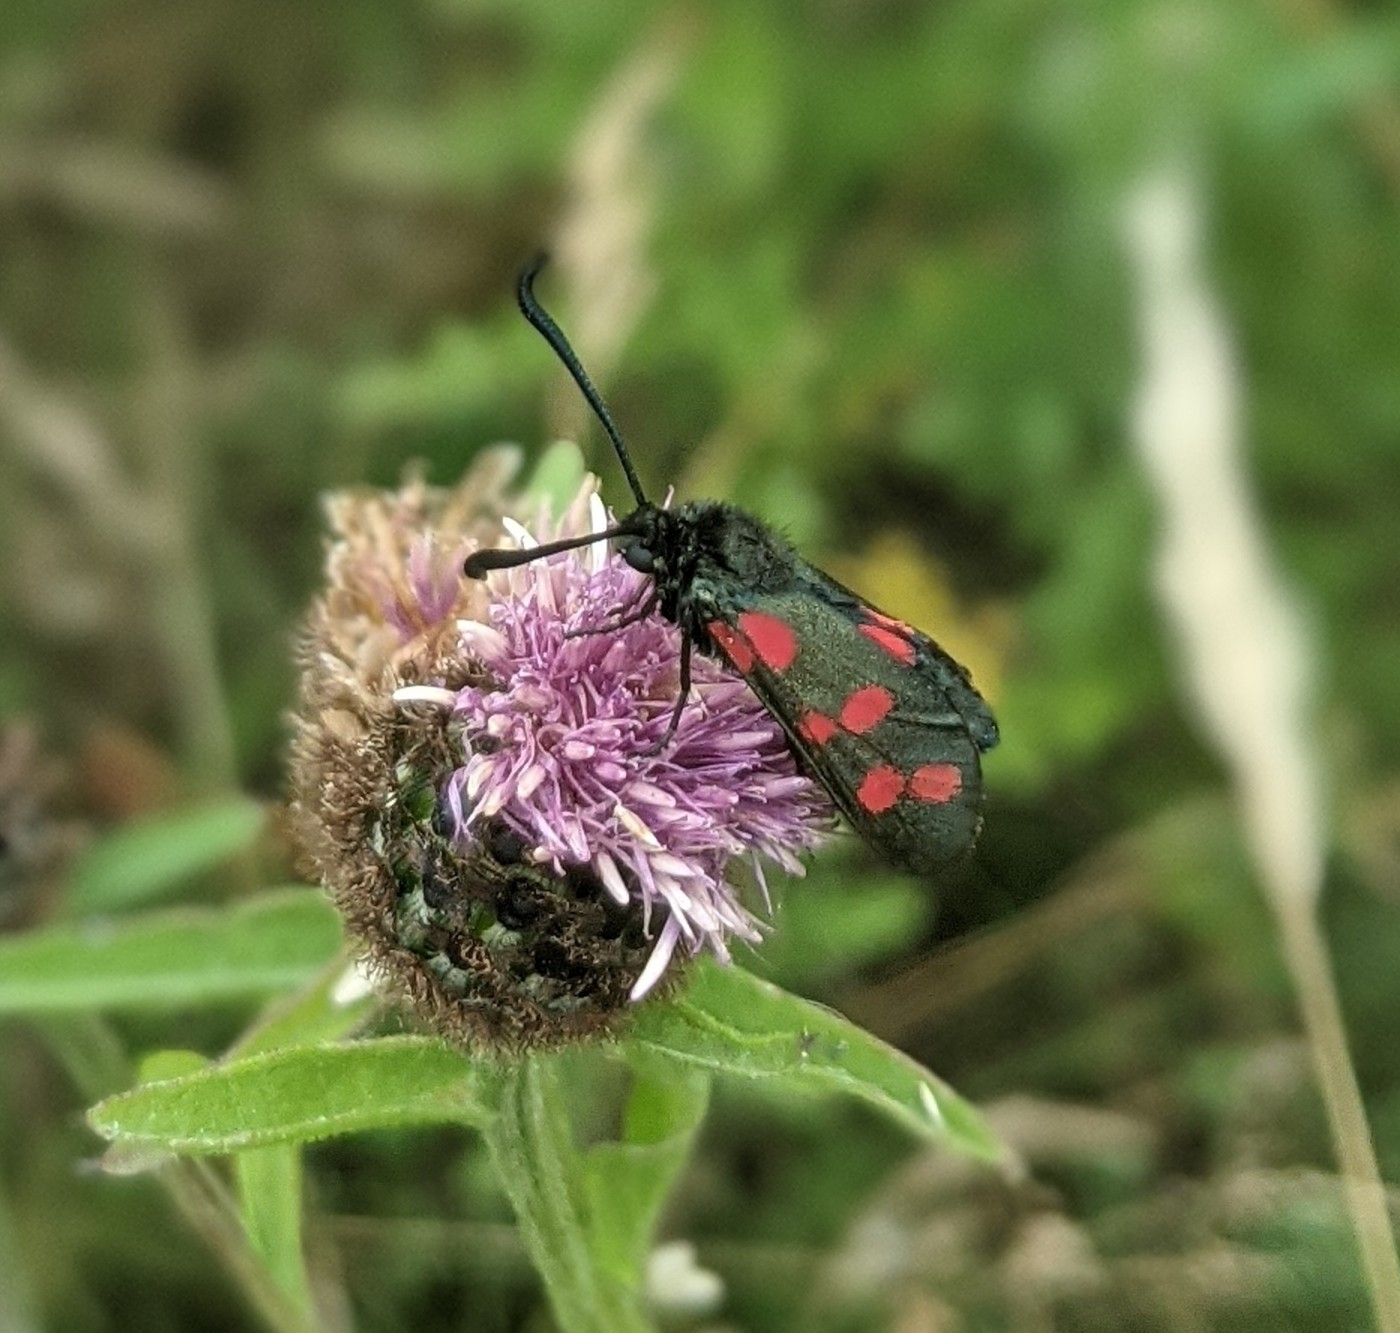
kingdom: Animalia
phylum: Arthropoda
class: Insecta
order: Lepidoptera
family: Zygaenidae
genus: Zygaena
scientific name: Zygaena filipendulae
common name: Six-spot burnet
